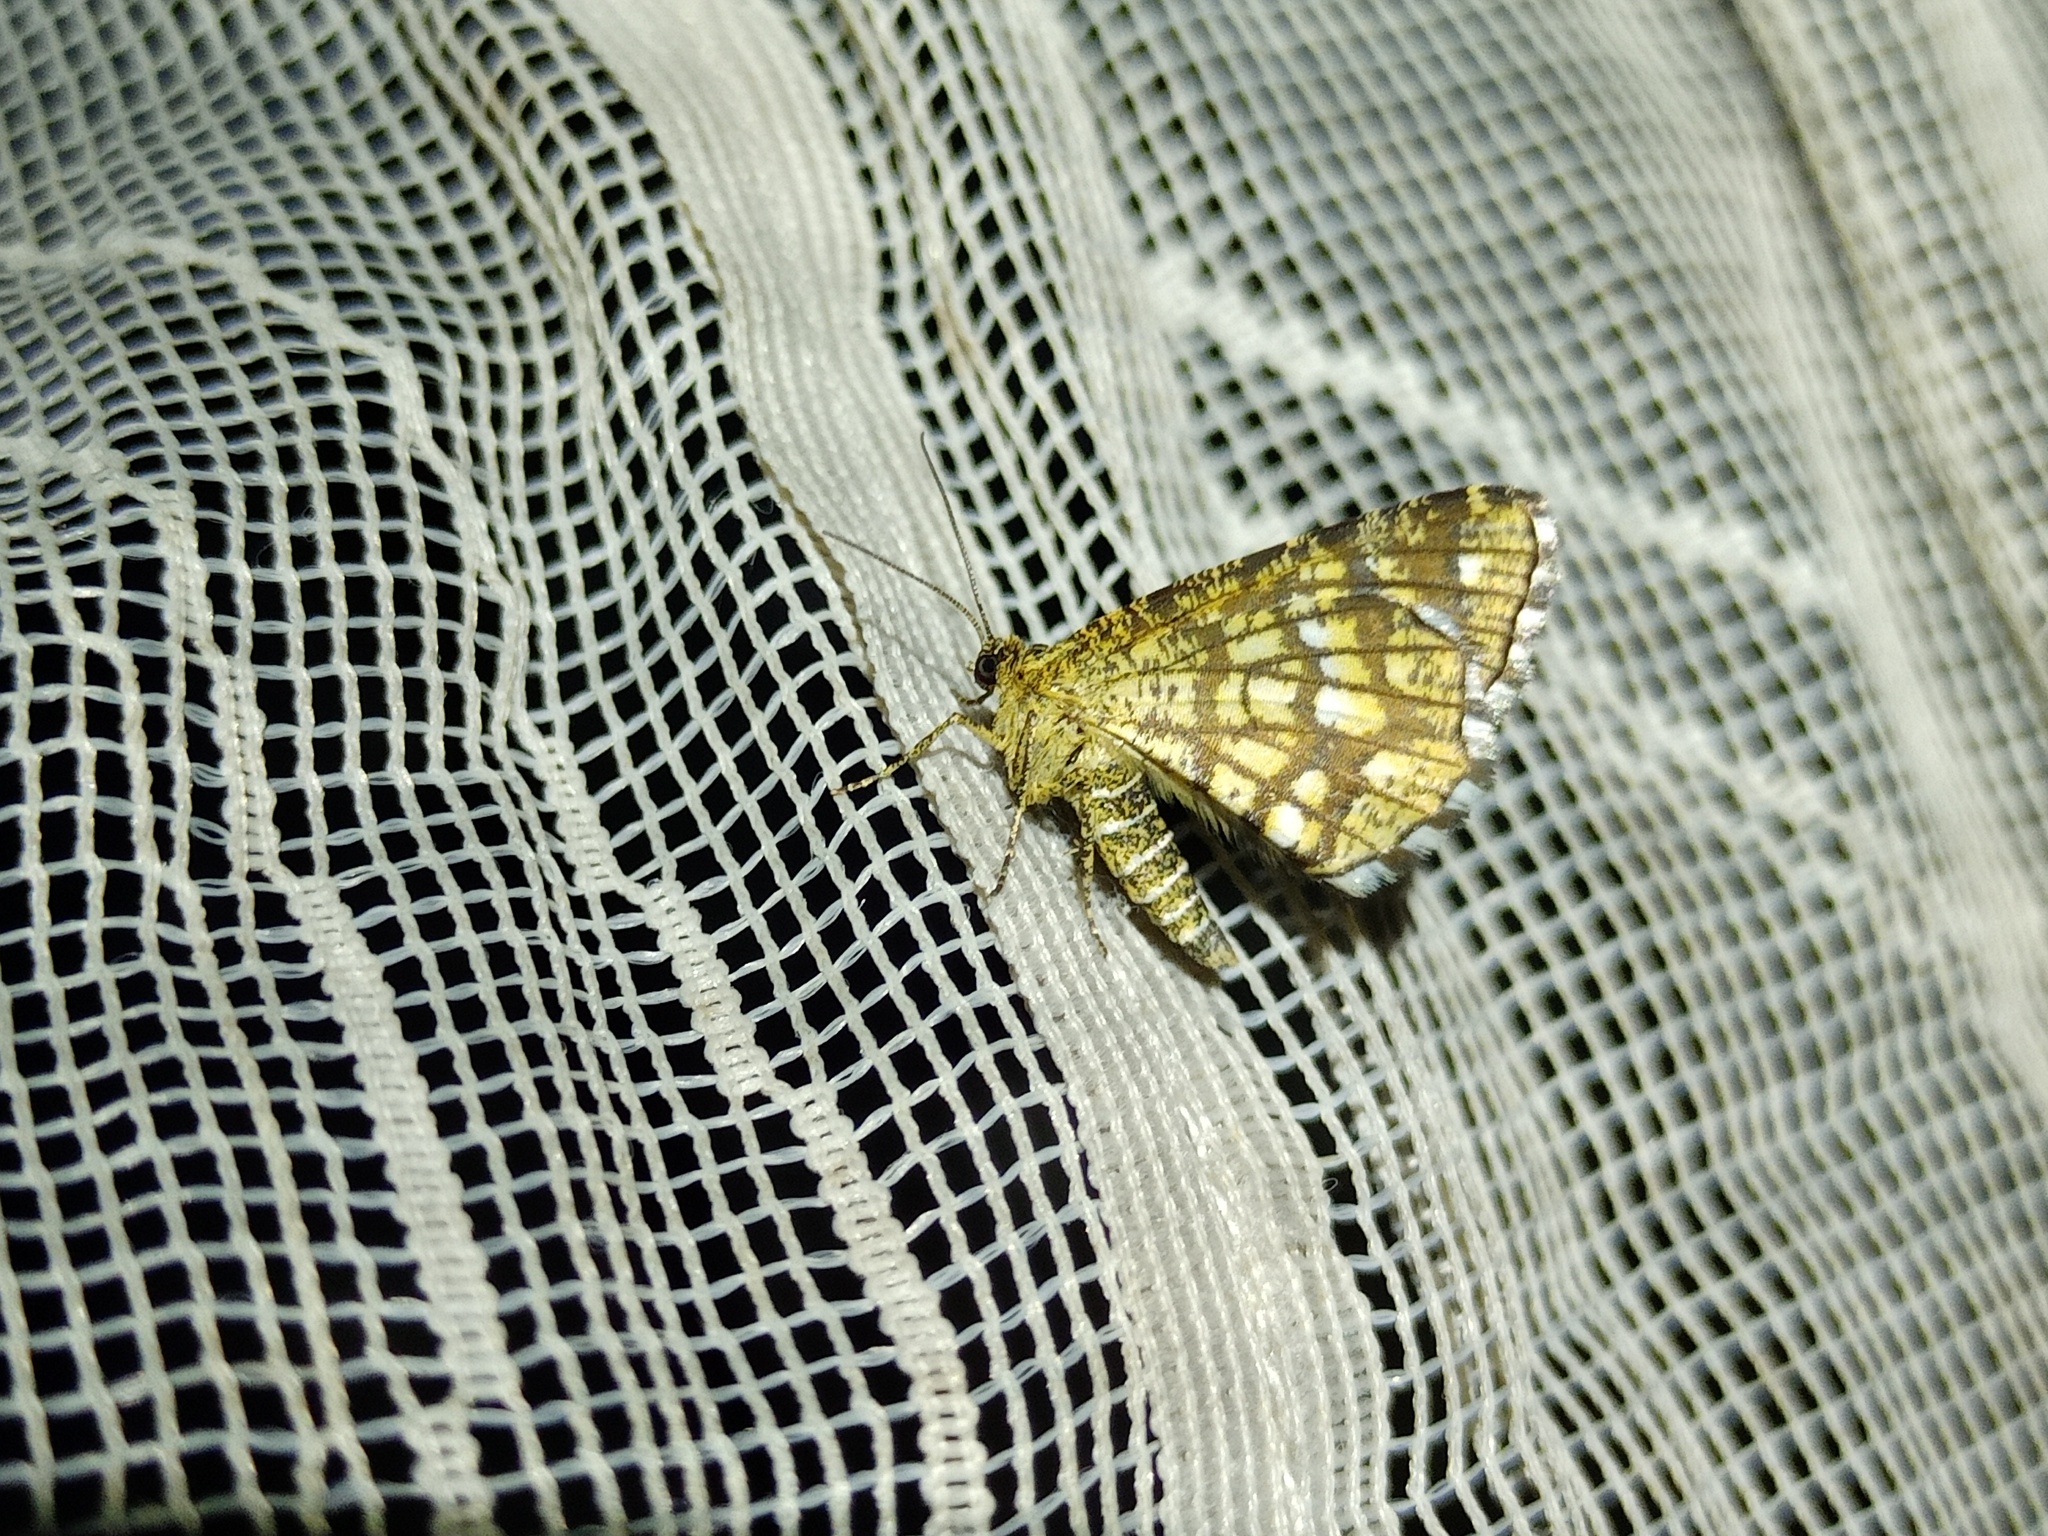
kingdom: Animalia
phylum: Arthropoda
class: Insecta
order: Lepidoptera
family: Geometridae
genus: Chiasmia
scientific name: Chiasmia clathrata
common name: Latticed heath
